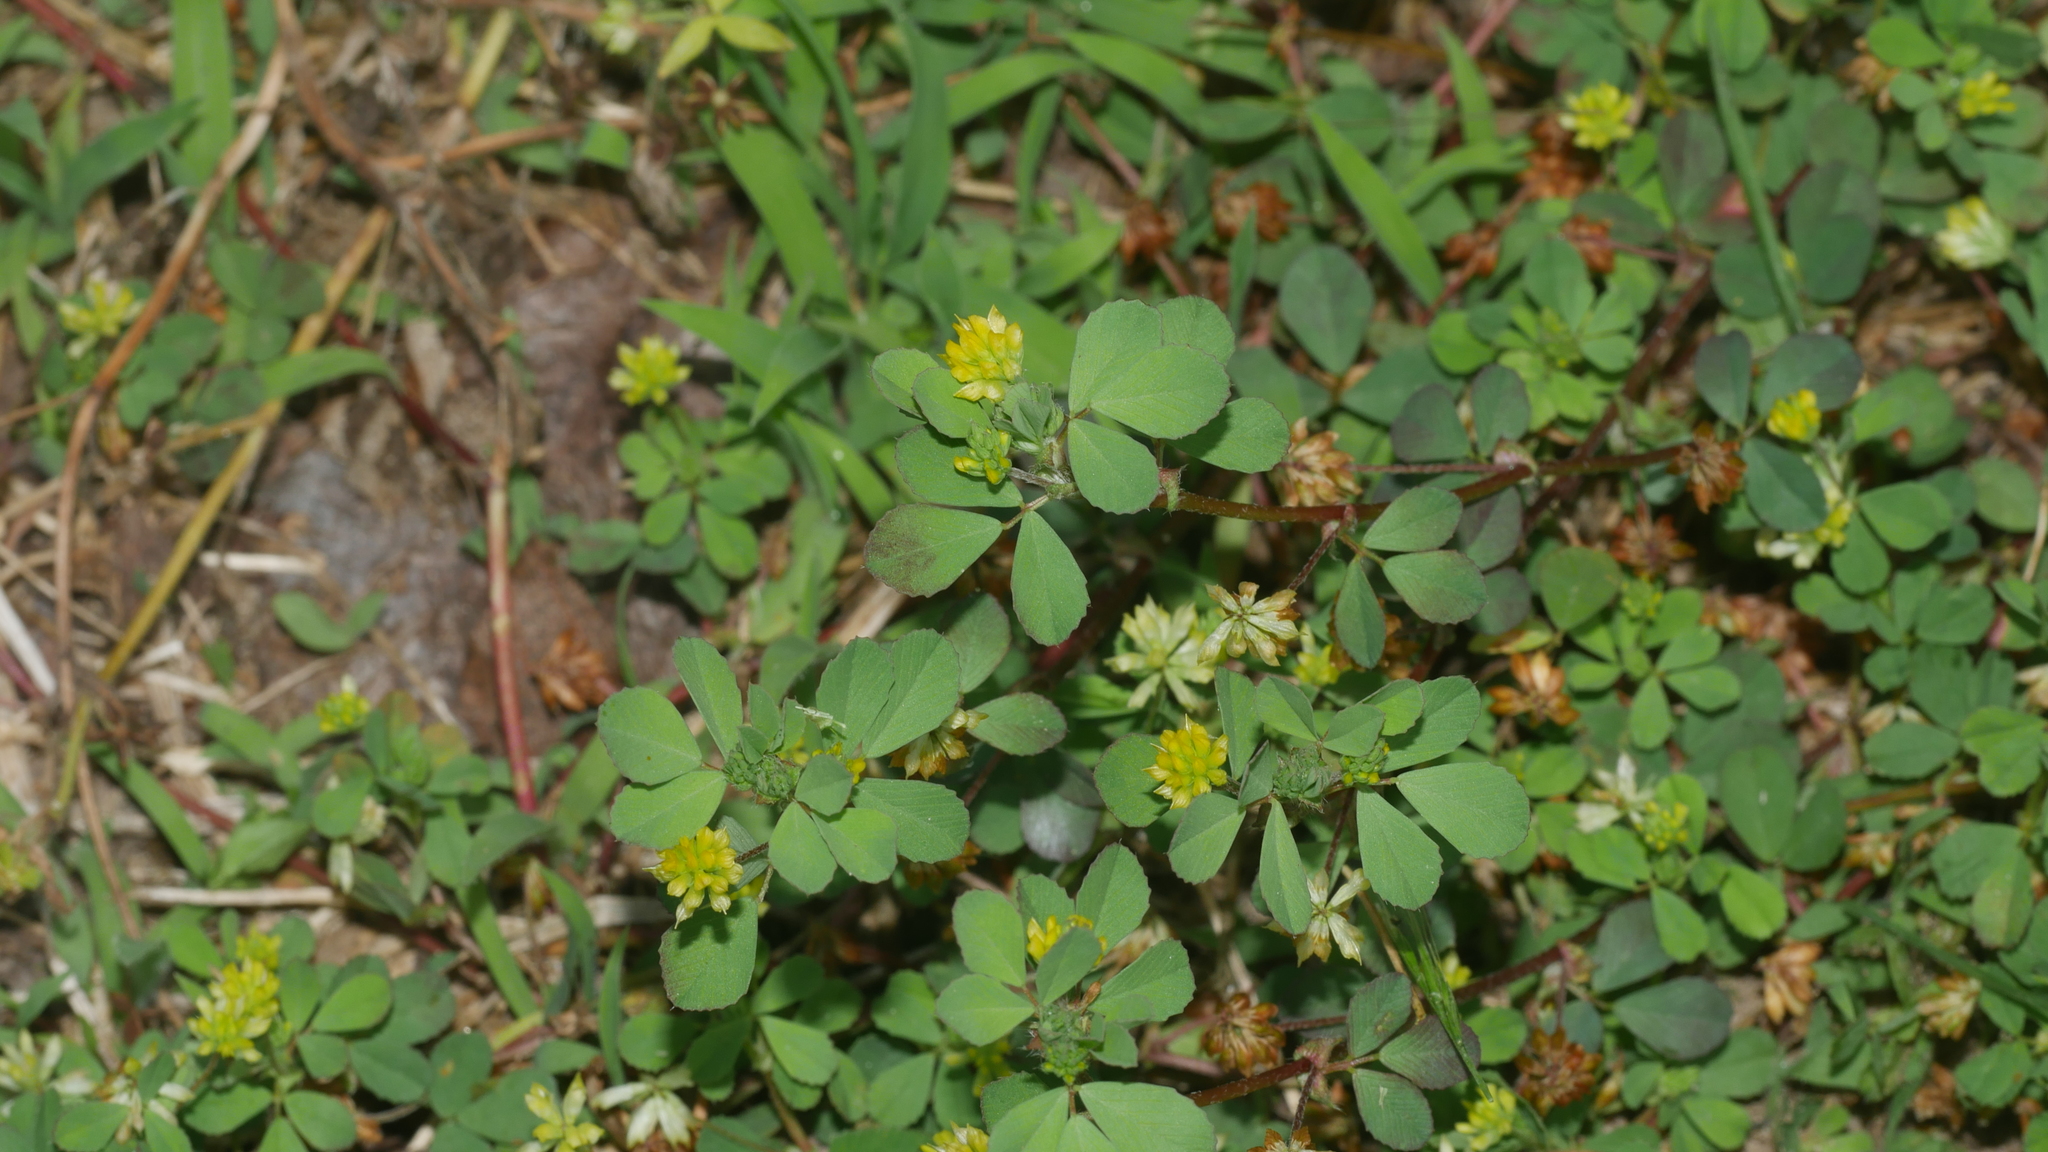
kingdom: Plantae
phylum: Tracheophyta
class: Magnoliopsida
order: Fabales
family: Fabaceae
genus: Trifolium
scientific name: Trifolium dubium
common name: Suckling clover
